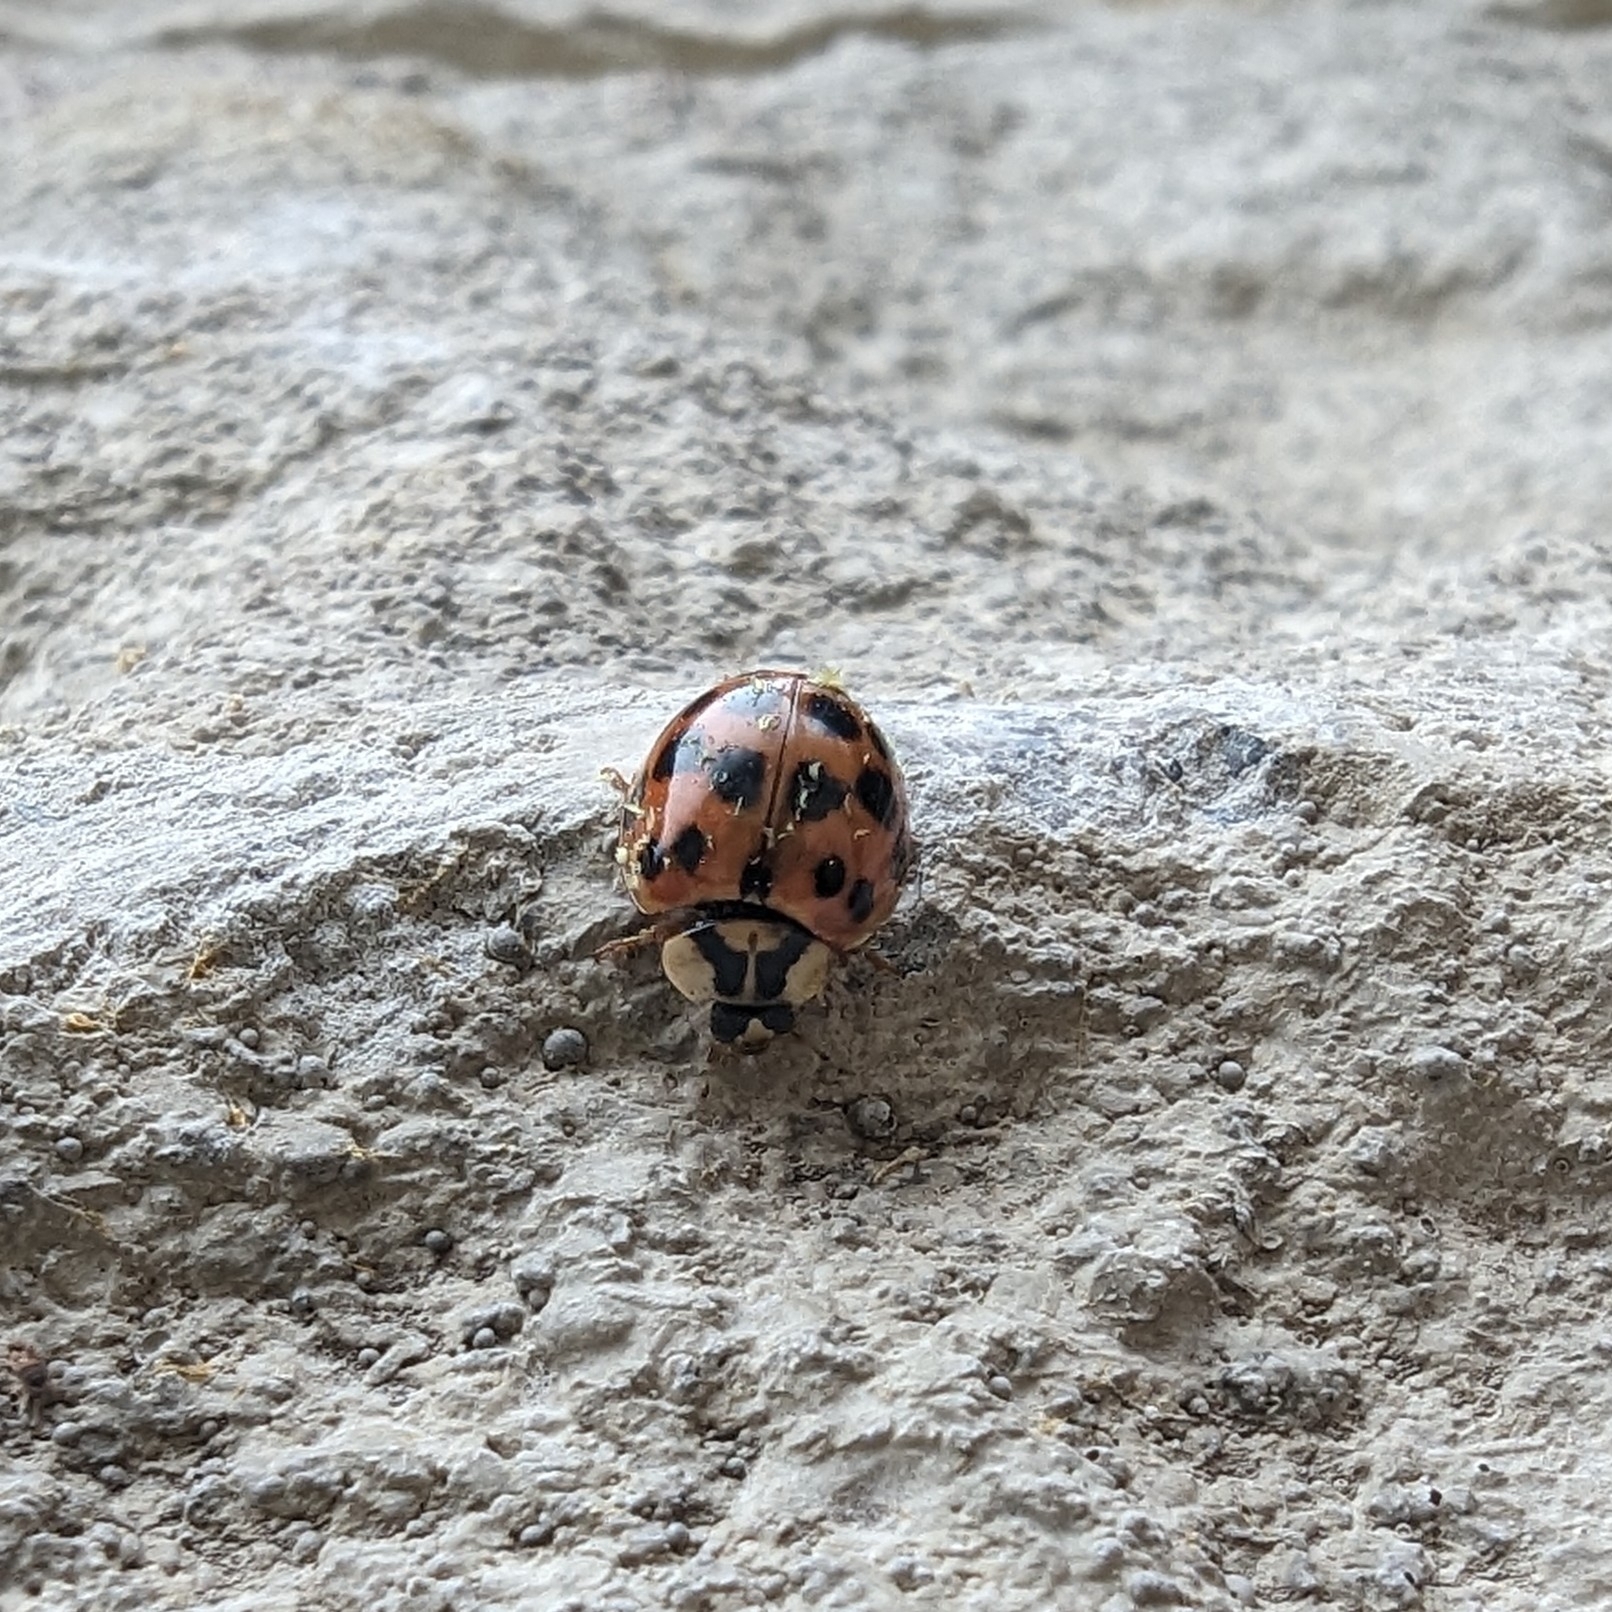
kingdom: Animalia
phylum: Arthropoda
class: Insecta
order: Coleoptera
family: Coccinellidae
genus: Harmonia
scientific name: Harmonia axyridis
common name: Harlequin ladybird
